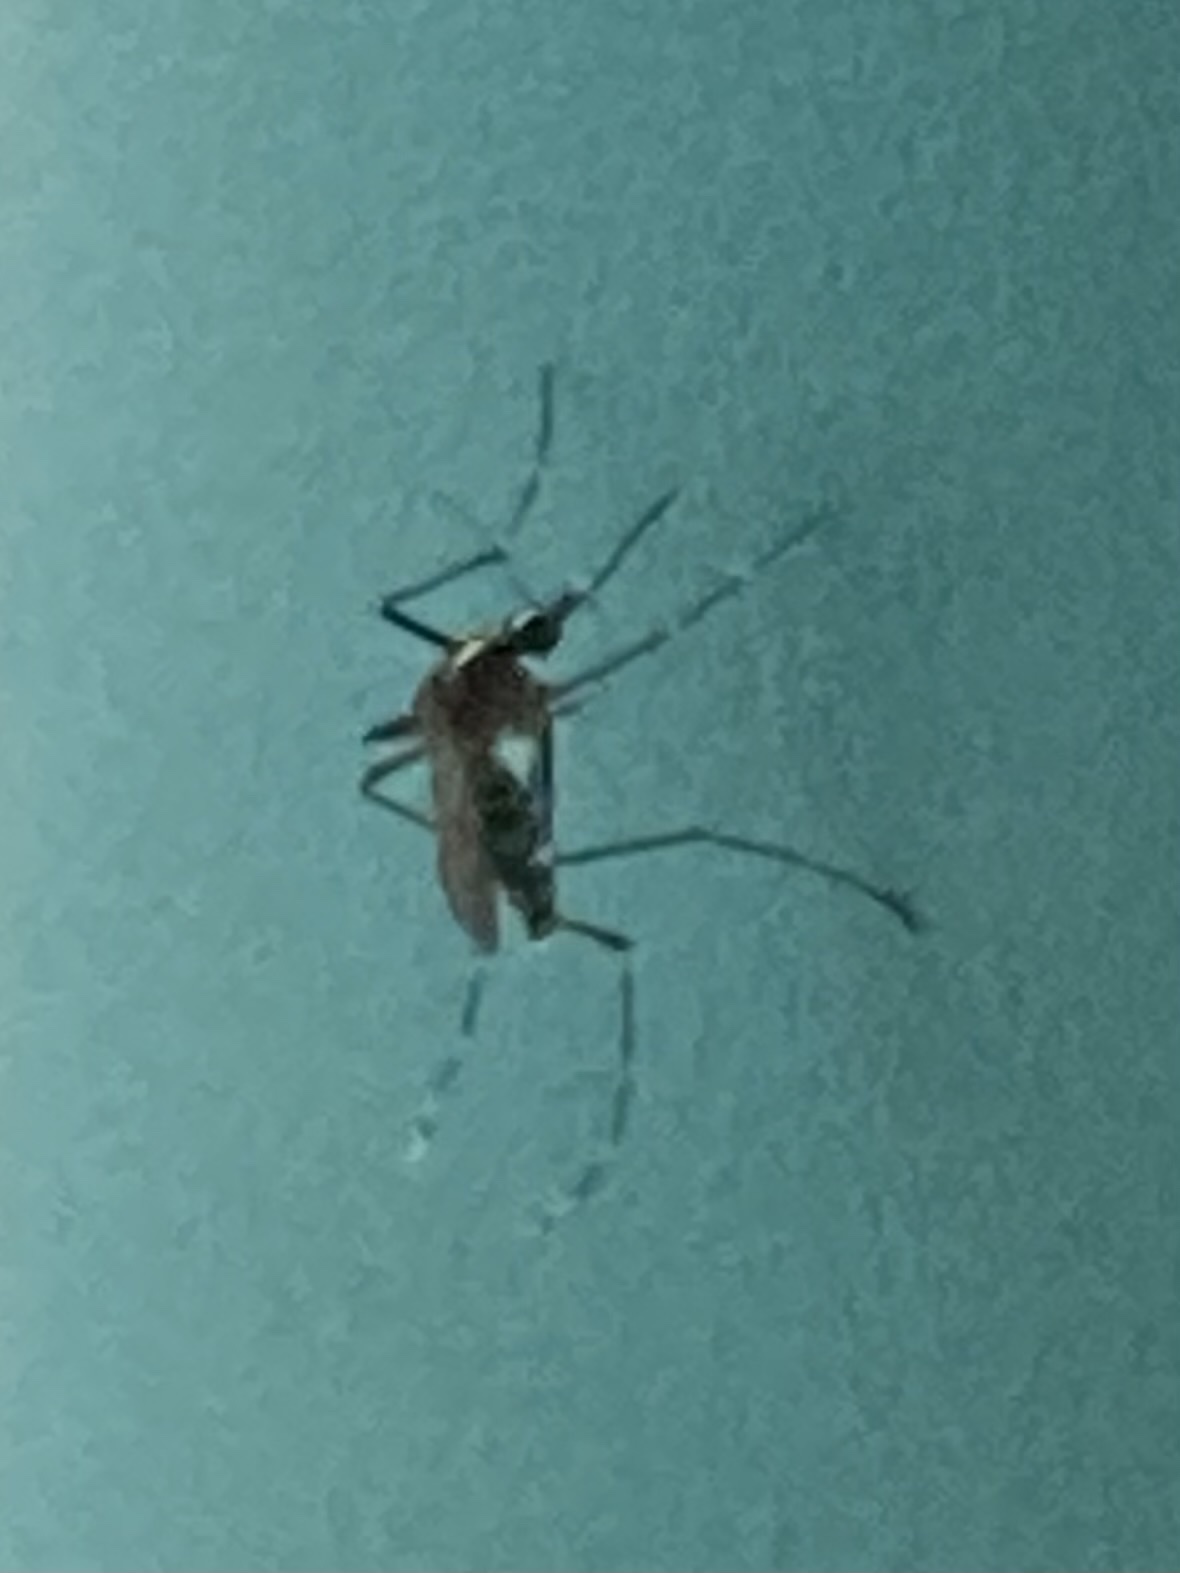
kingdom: Animalia
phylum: Arthropoda
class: Insecta
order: Diptera
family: Culicidae
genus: Aedes
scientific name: Aedes albopictus
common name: Tiger mosquito
